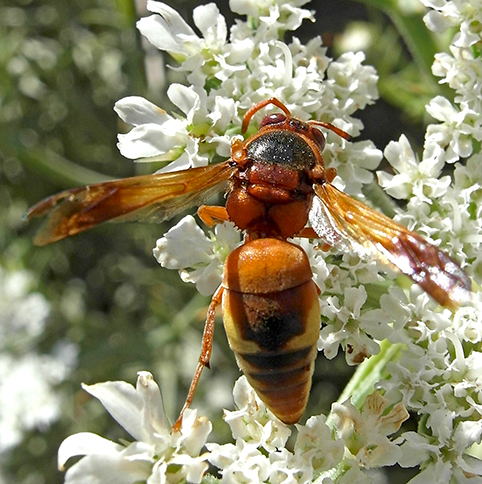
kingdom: Animalia
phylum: Arthropoda
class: Insecta
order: Hymenoptera
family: Eumenidae
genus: Rhynchium
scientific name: Rhynchium oculatum
